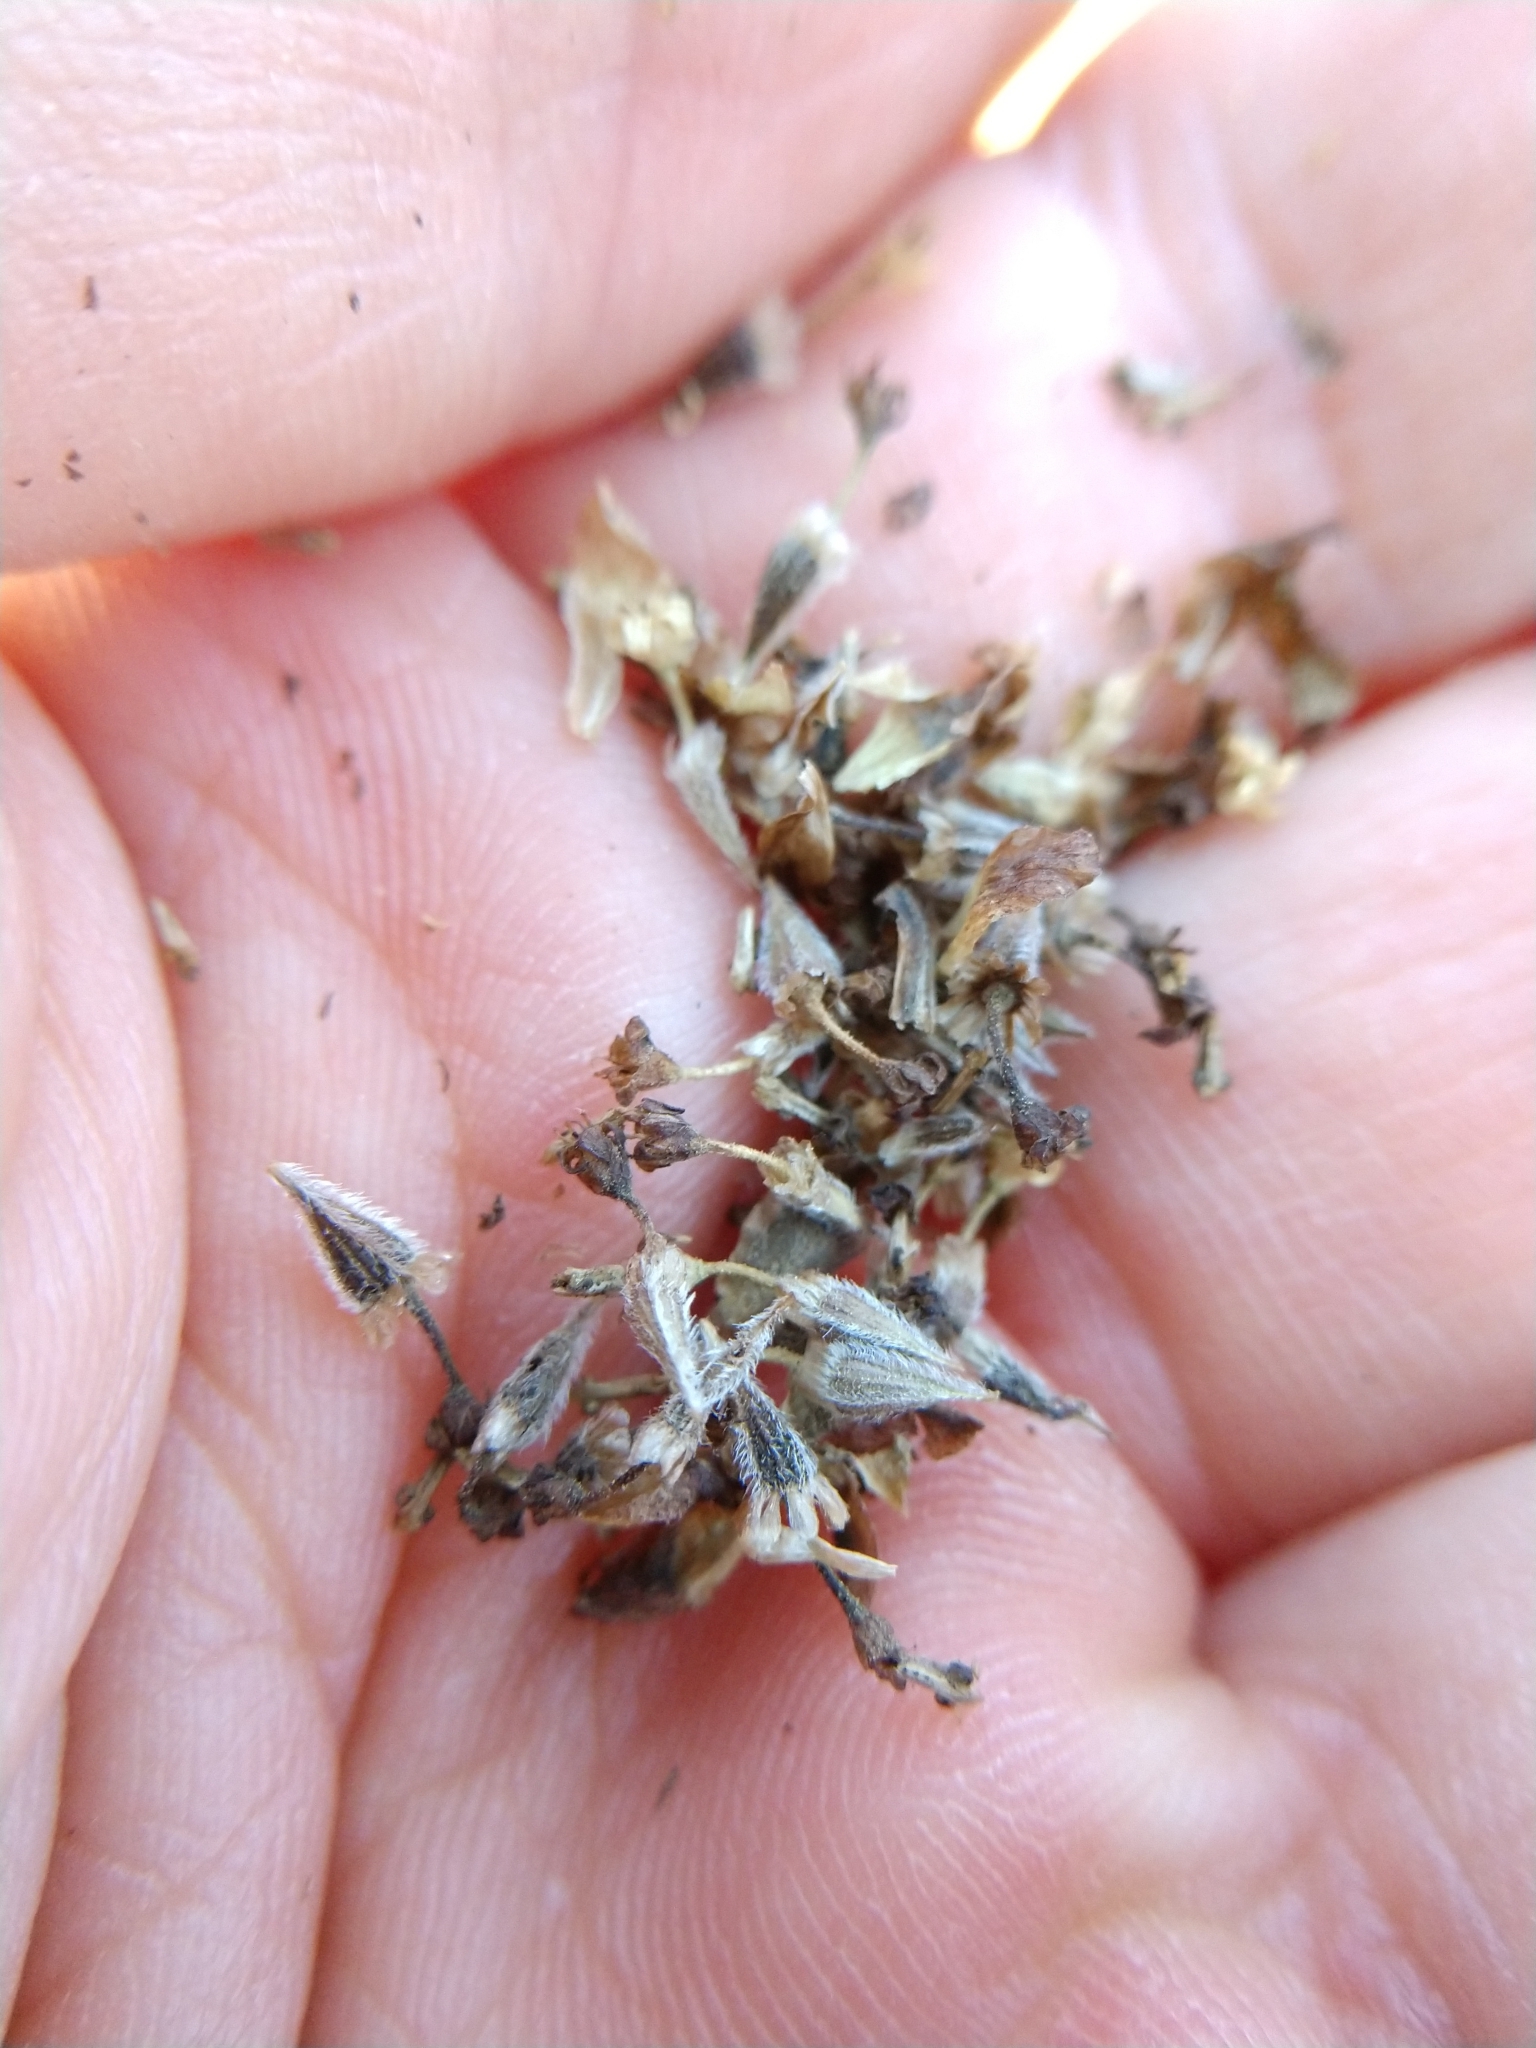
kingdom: Plantae
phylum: Tracheophyta
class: Magnoliopsida
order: Asterales
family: Asteraceae
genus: Hymenopappus
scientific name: Hymenopappus carrizoanus
